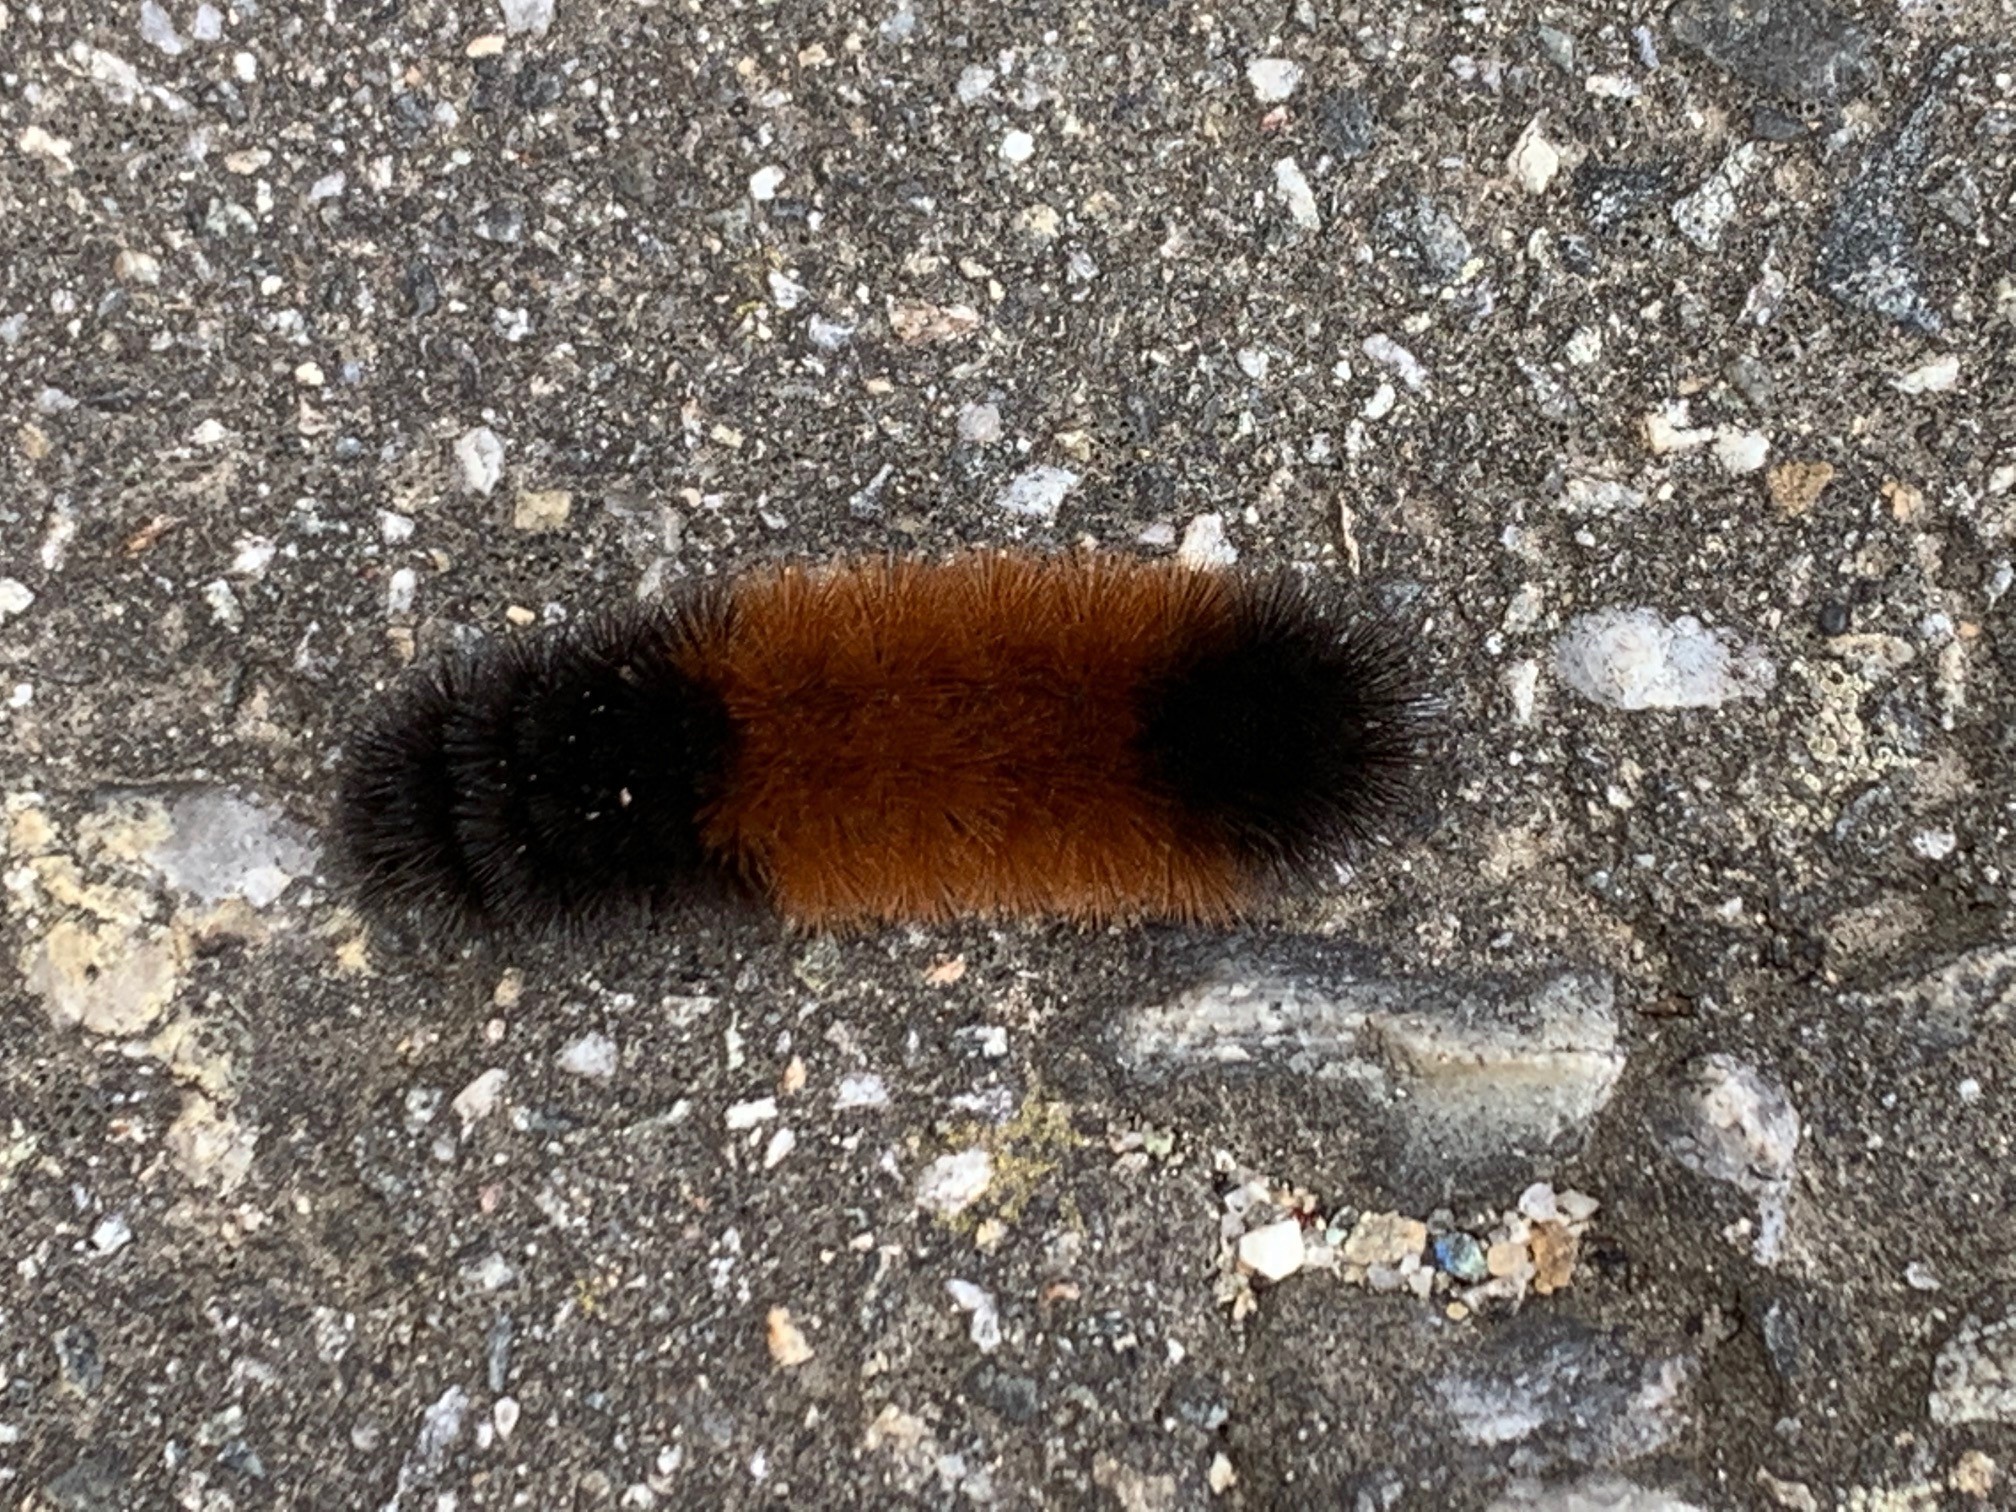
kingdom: Animalia
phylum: Arthropoda
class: Insecta
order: Lepidoptera
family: Erebidae
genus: Pyrrharctia
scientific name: Pyrrharctia isabella
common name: Isabella tiger moth
